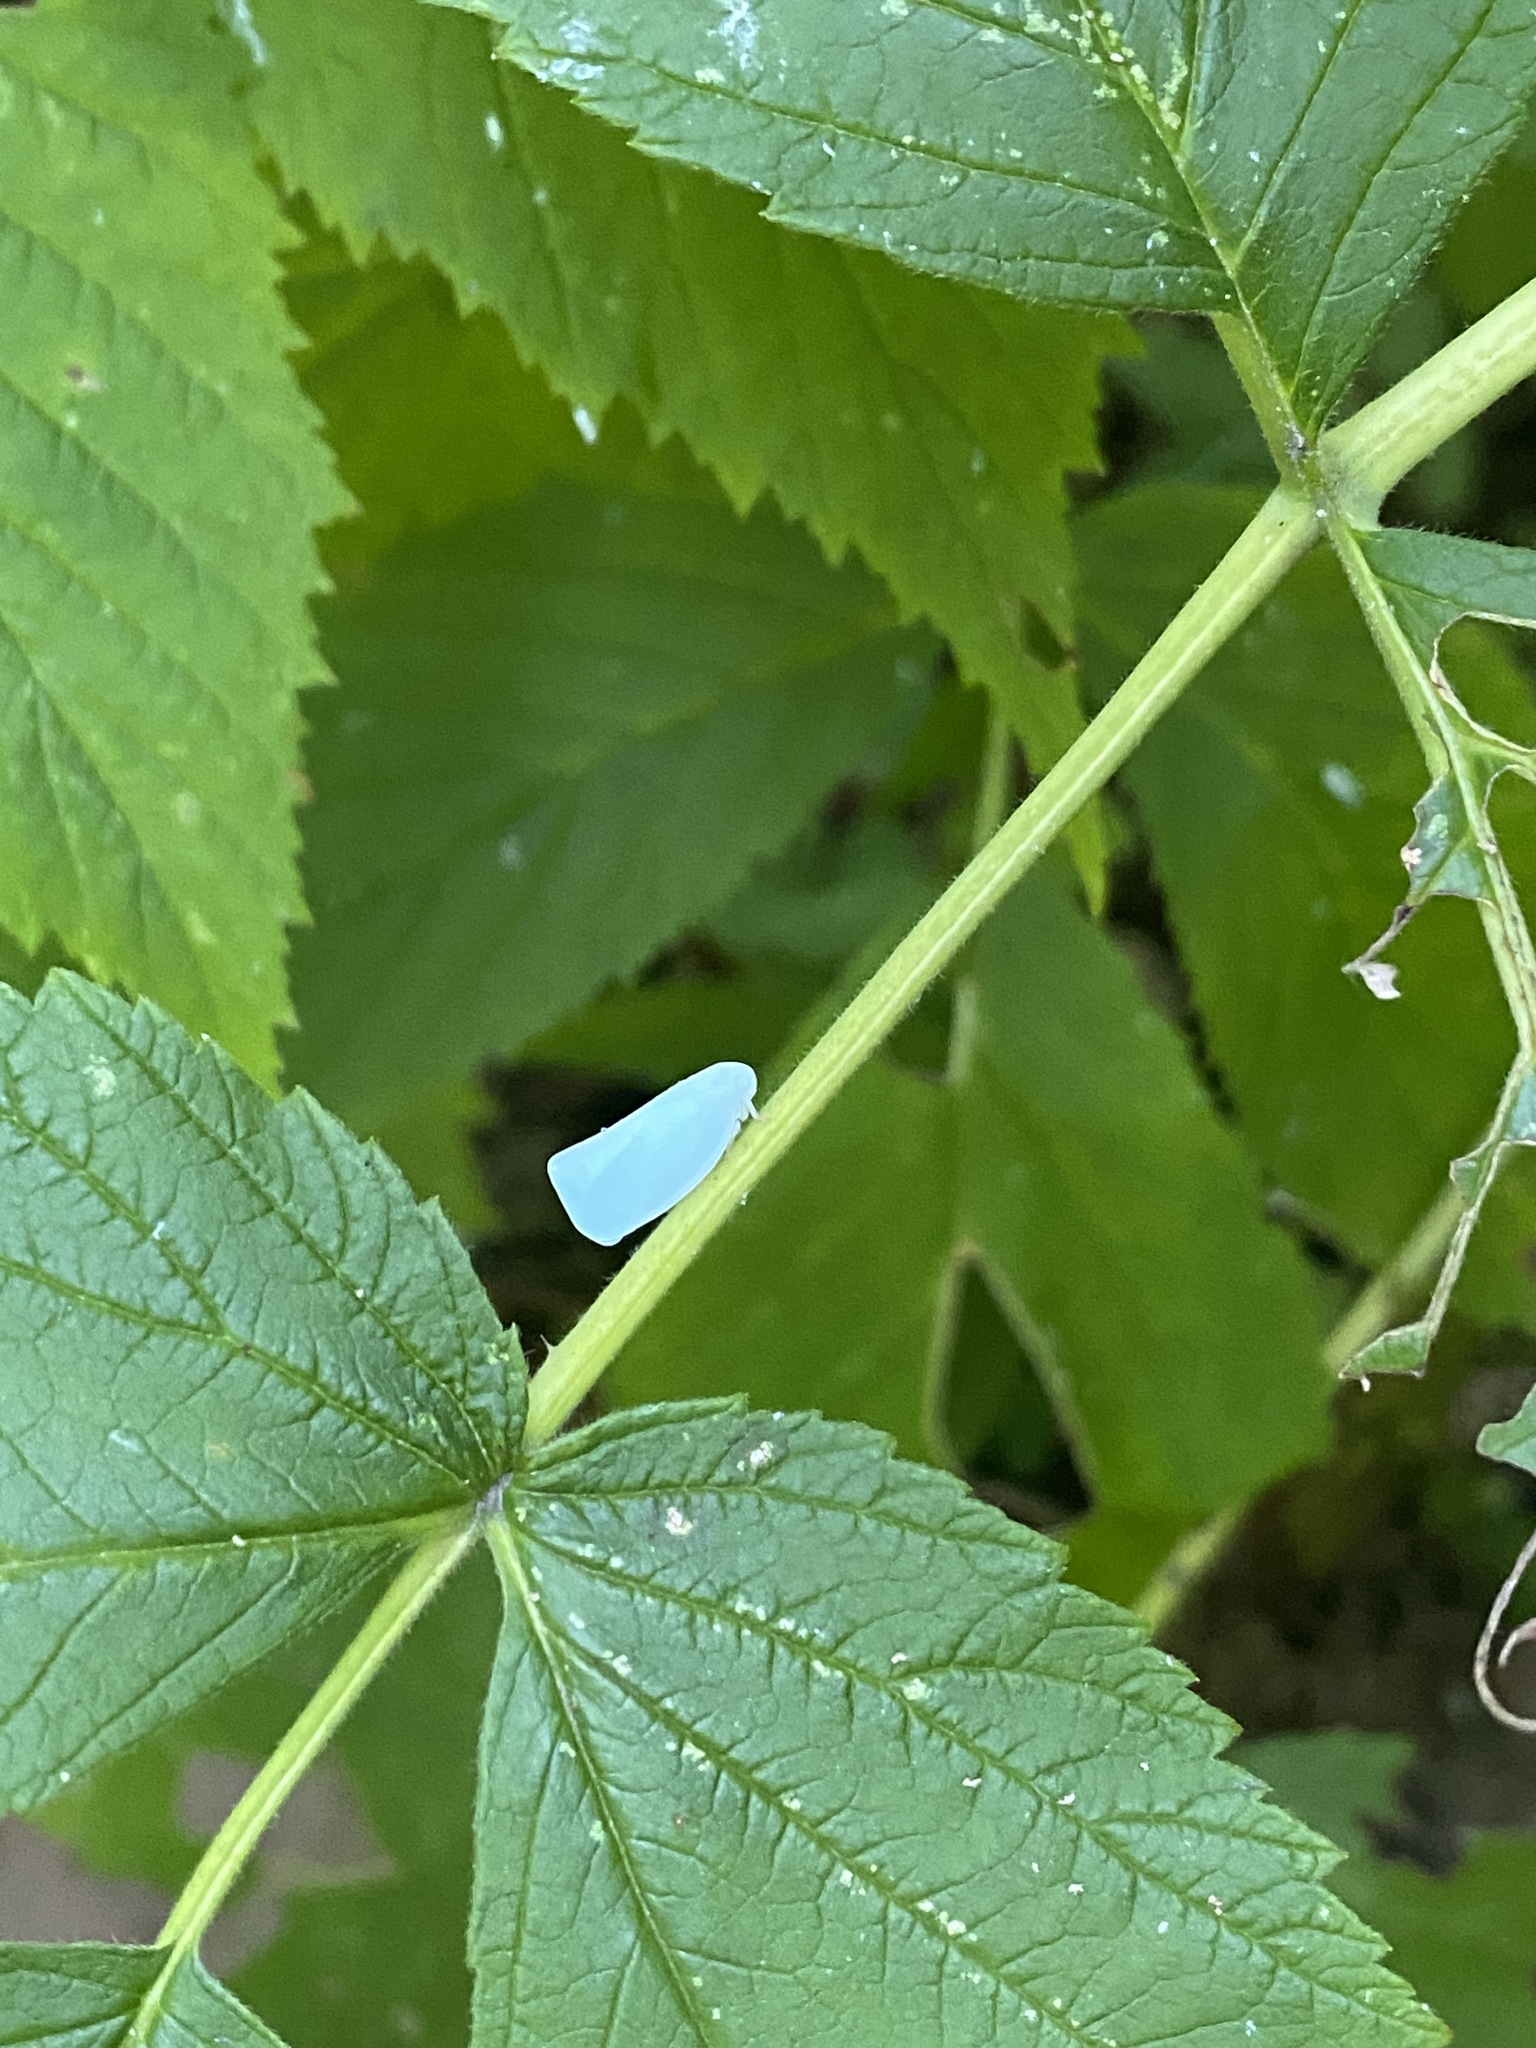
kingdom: Animalia
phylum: Arthropoda
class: Insecta
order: Hemiptera
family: Flatidae
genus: Flatormenis
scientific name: Flatormenis proxima
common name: Northern flatid planthopper
